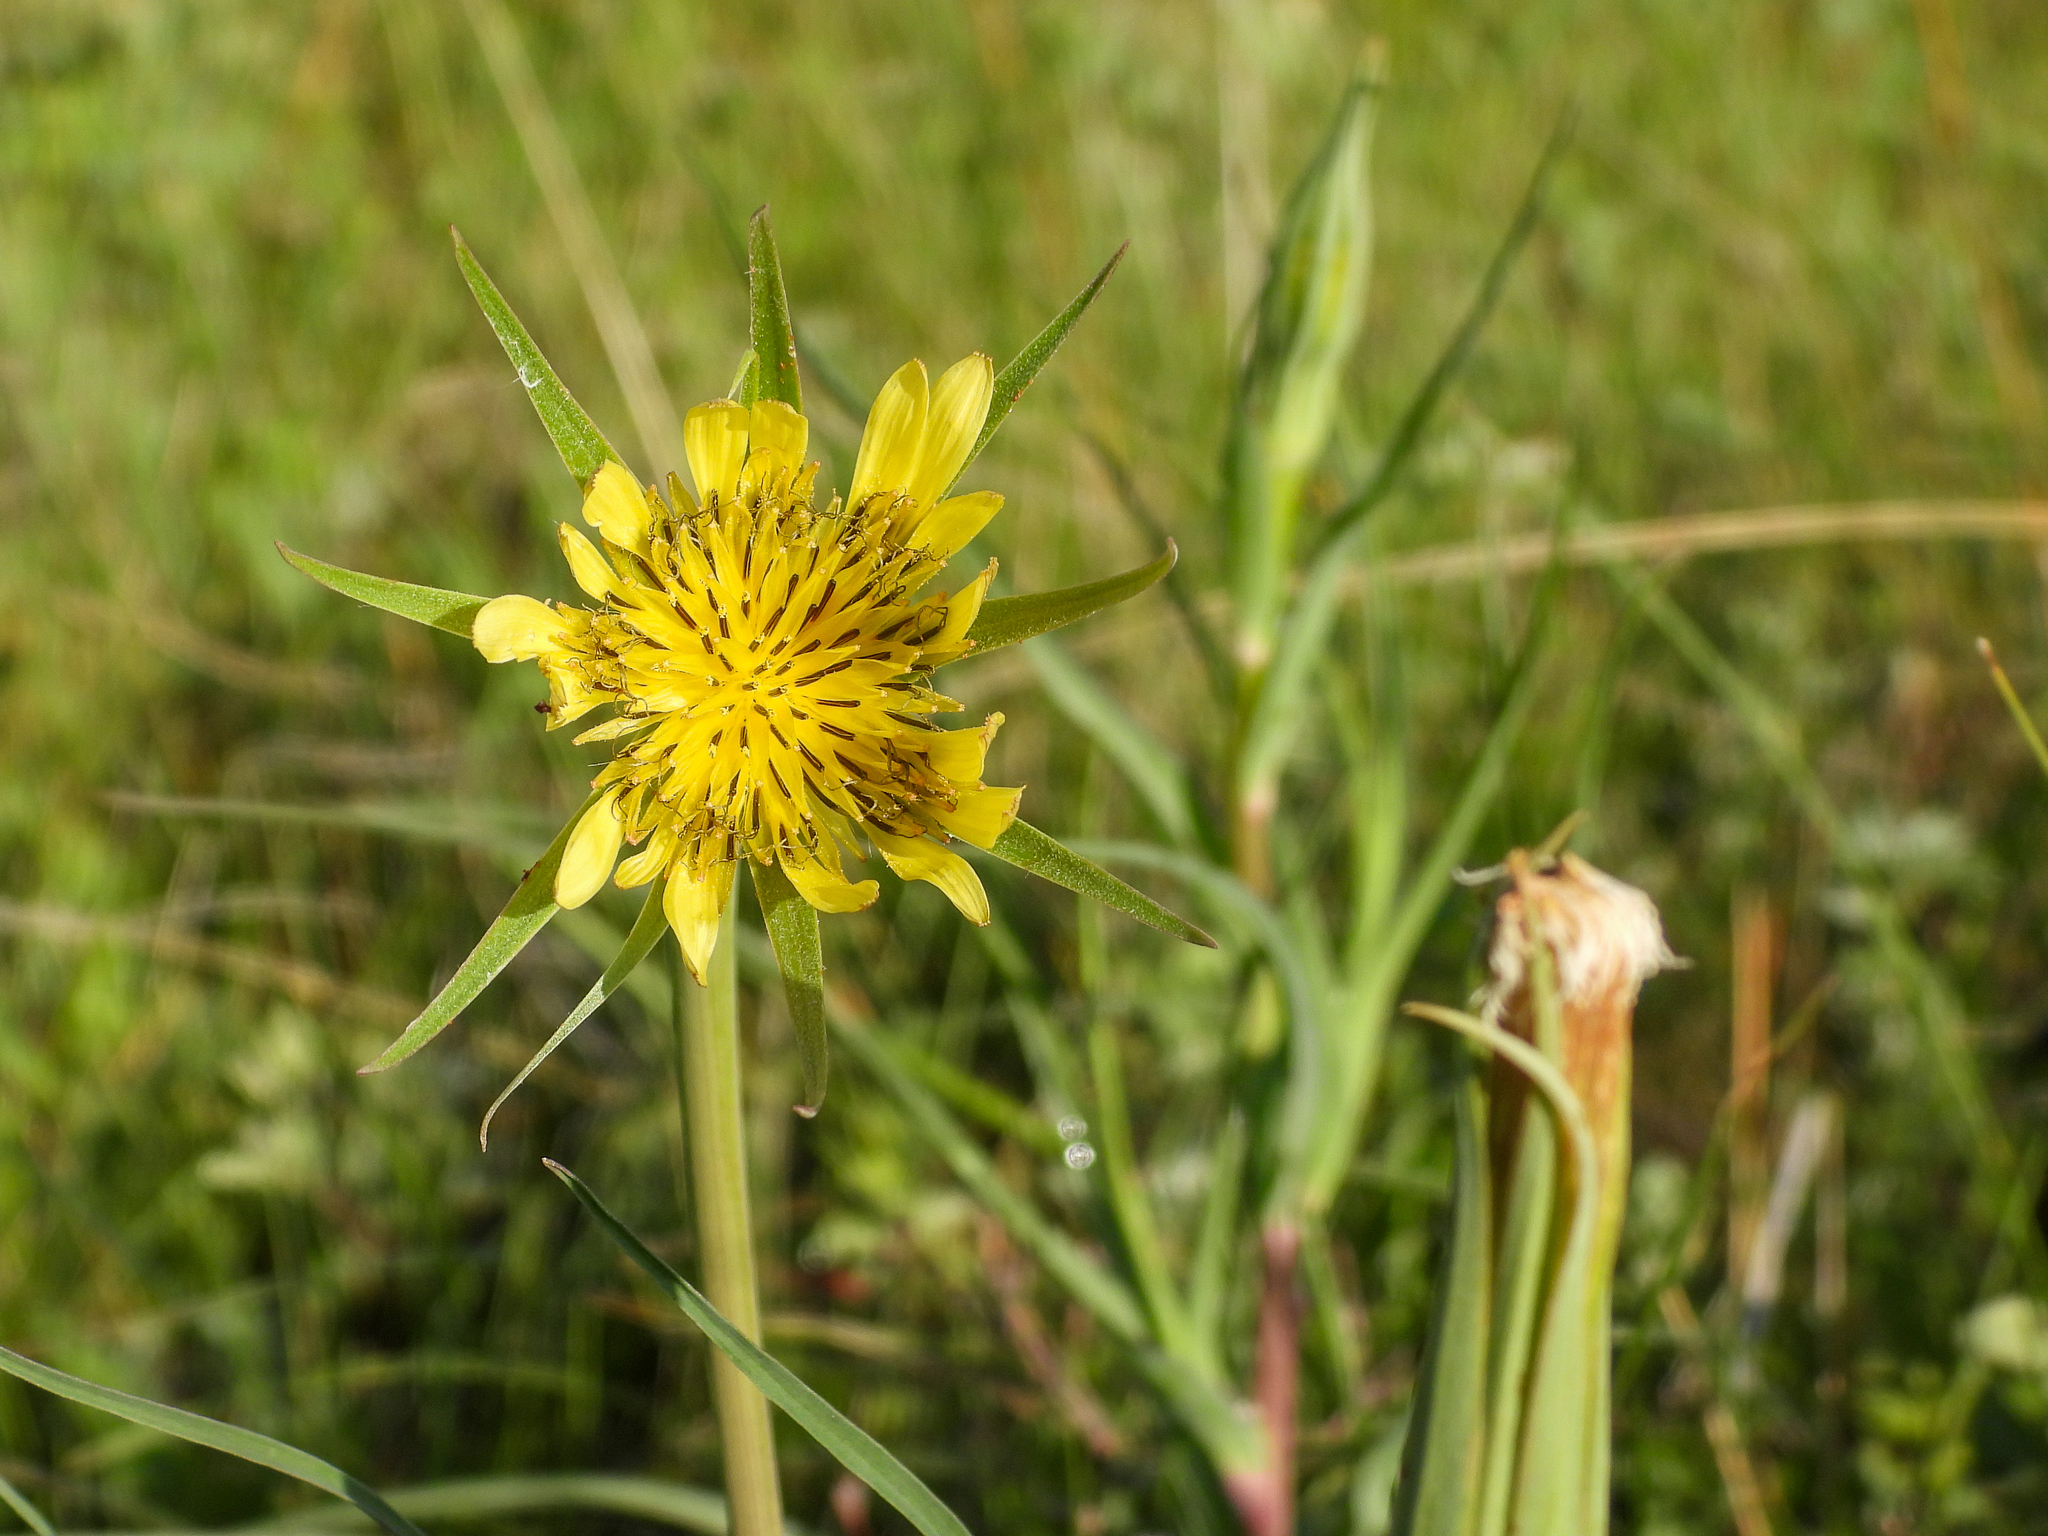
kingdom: Plantae
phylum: Tracheophyta
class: Magnoliopsida
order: Asterales
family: Asteraceae
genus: Tragopogon
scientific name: Tragopogon dubius
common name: Yellow salsify
